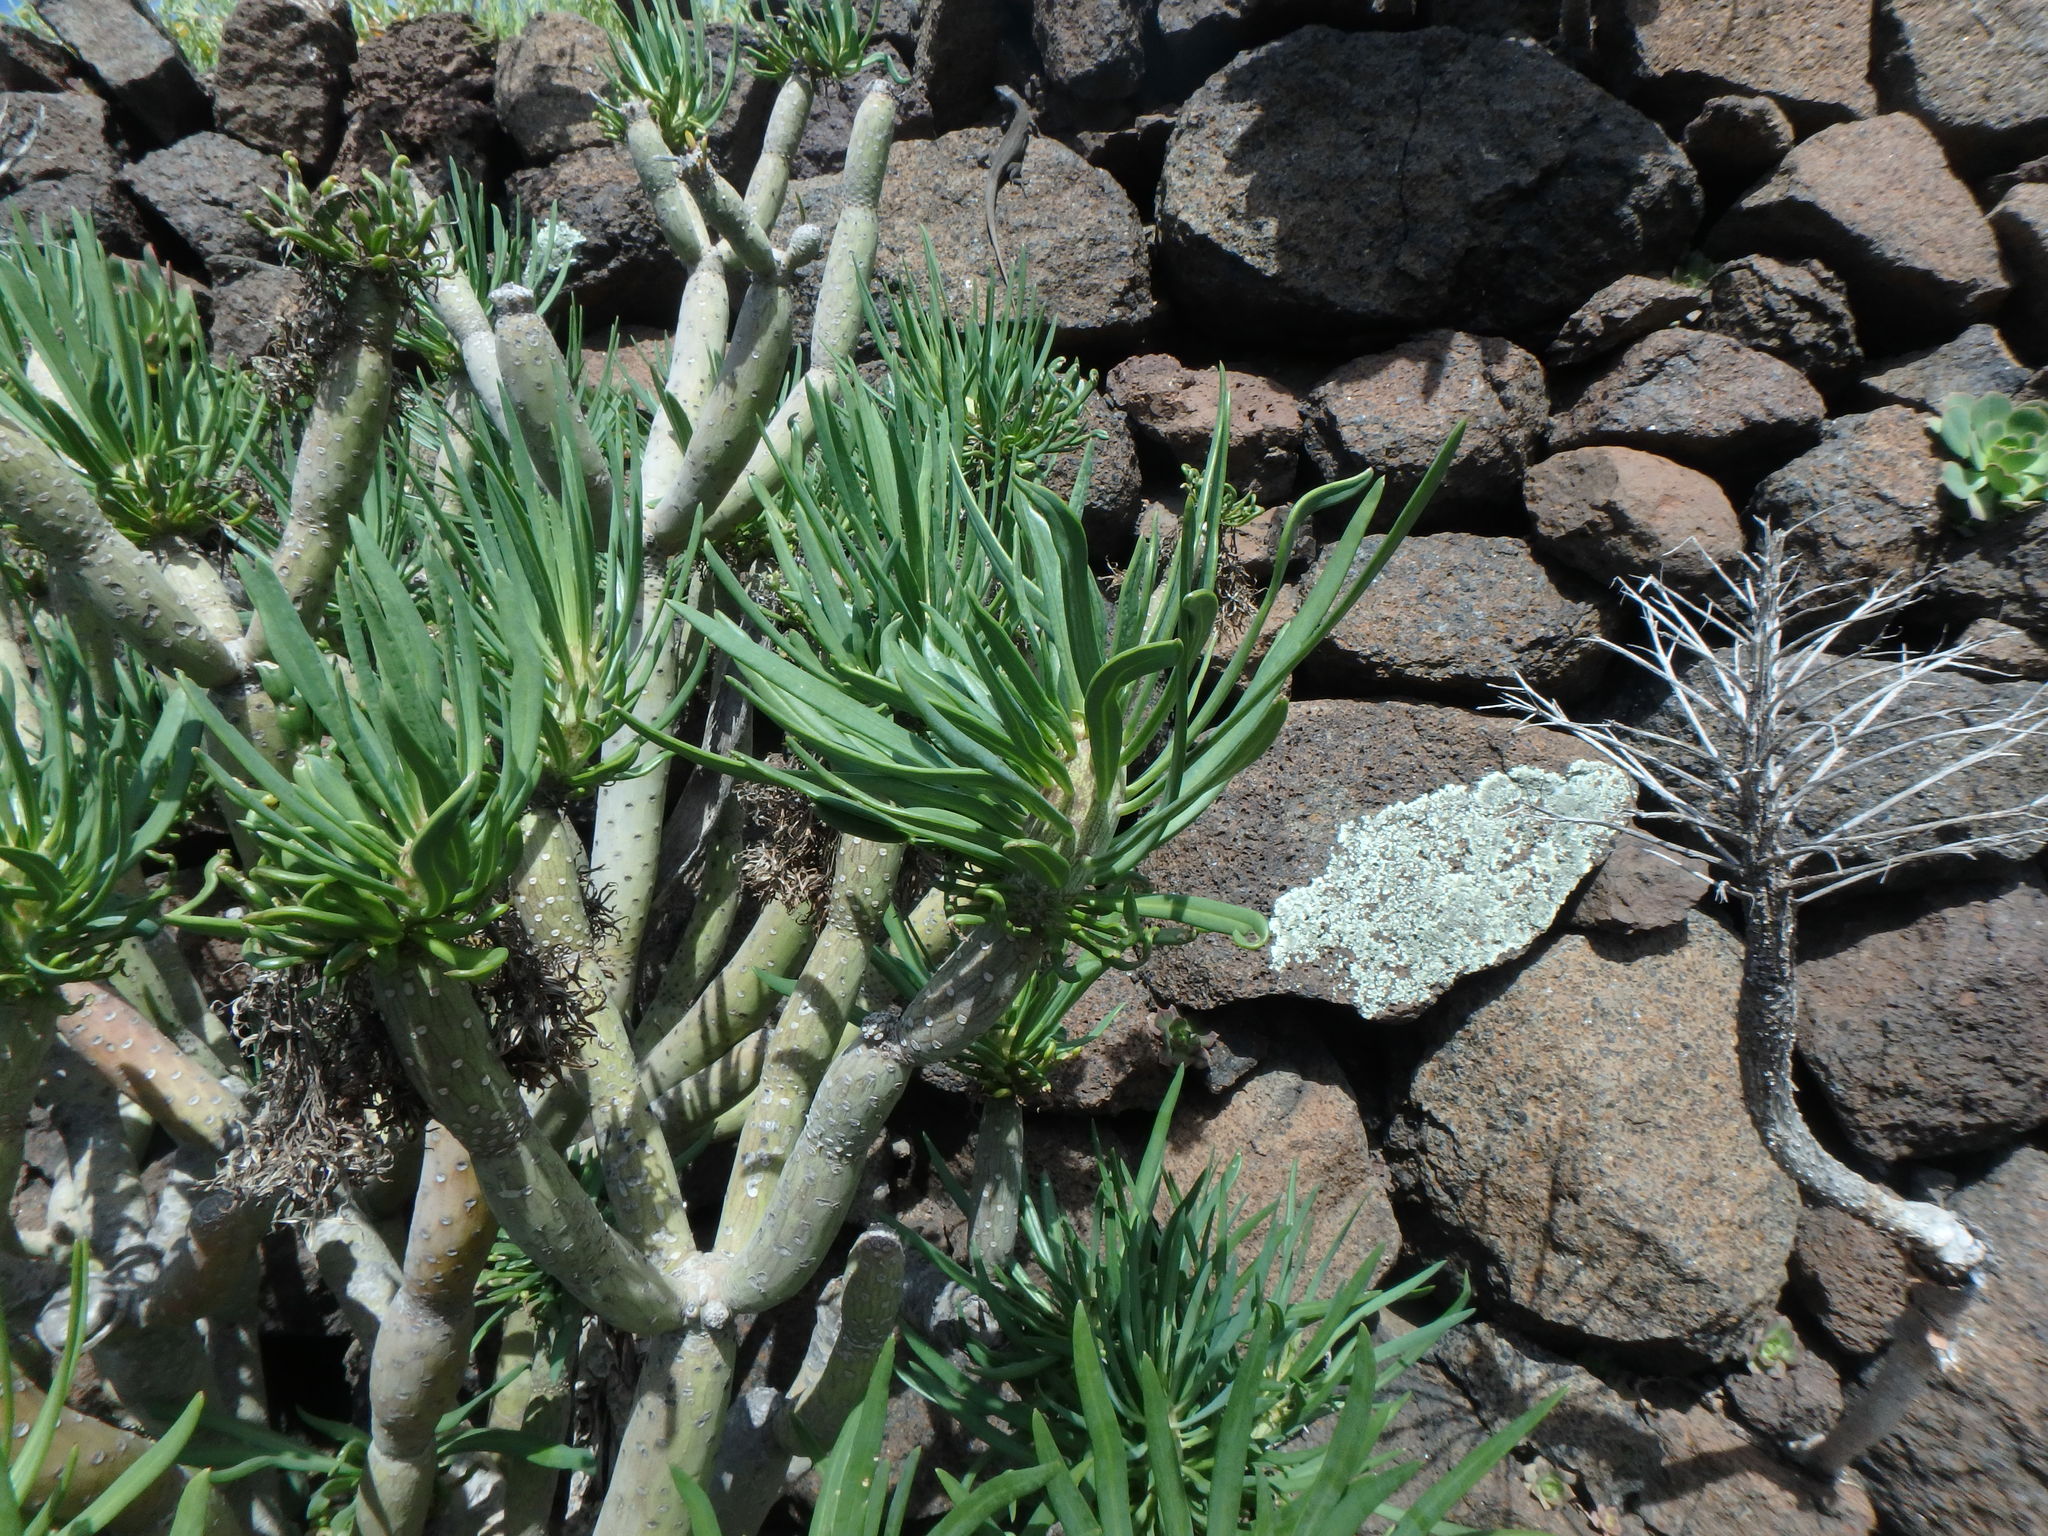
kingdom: Plantae
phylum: Tracheophyta
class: Magnoliopsida
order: Asterales
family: Asteraceae
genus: Kleinia
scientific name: Kleinia neriifolia
